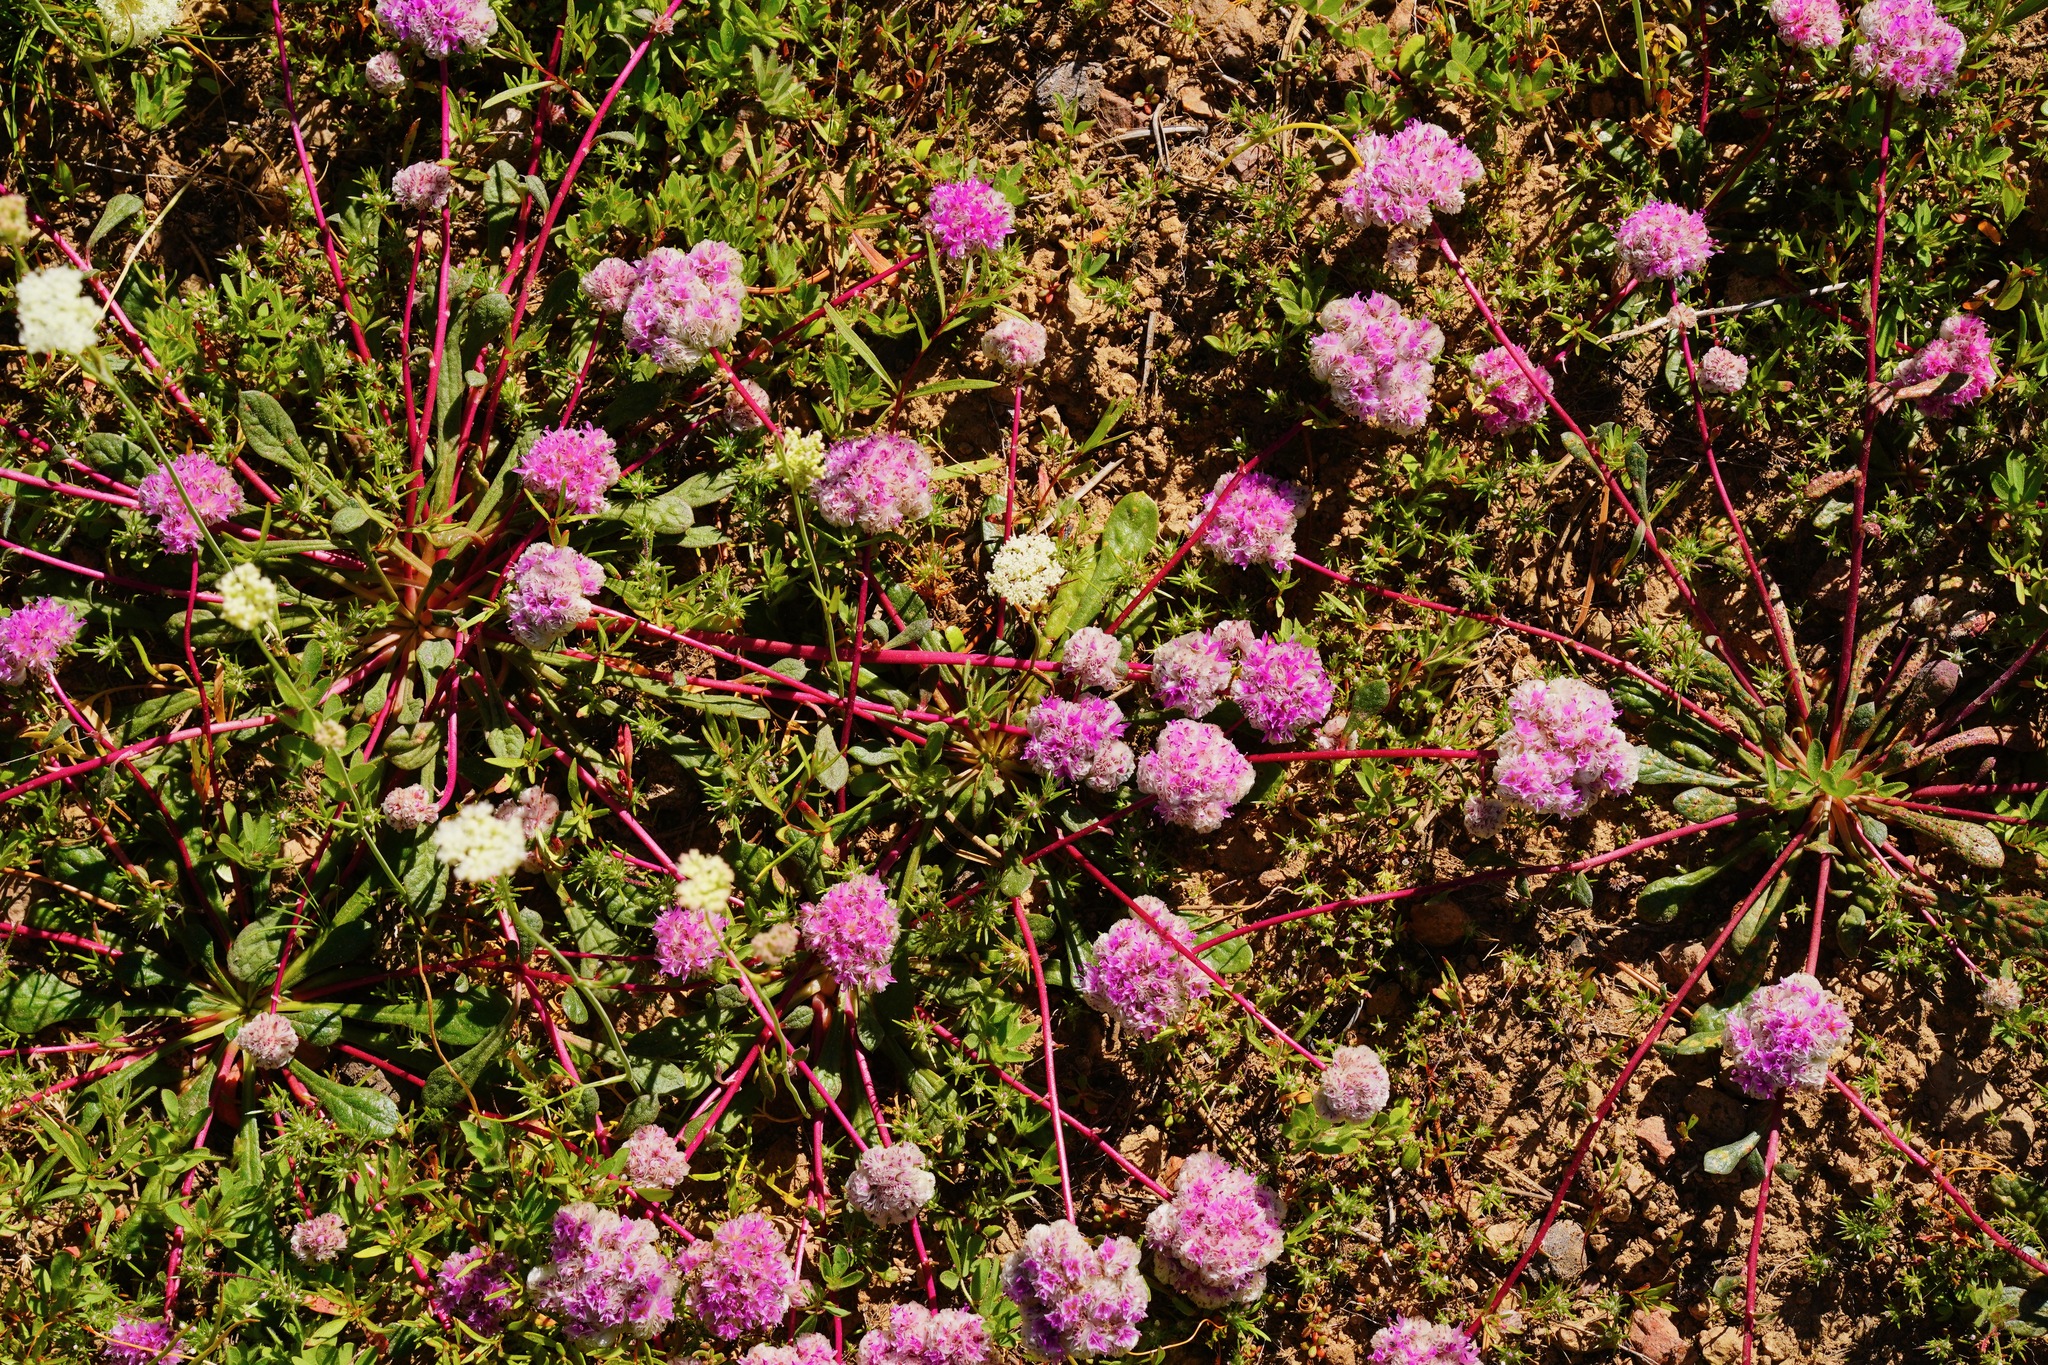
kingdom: Plantae
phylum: Tracheophyta
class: Magnoliopsida
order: Caryophyllales
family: Montiaceae
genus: Calyptridium
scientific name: Calyptridium monospermum
